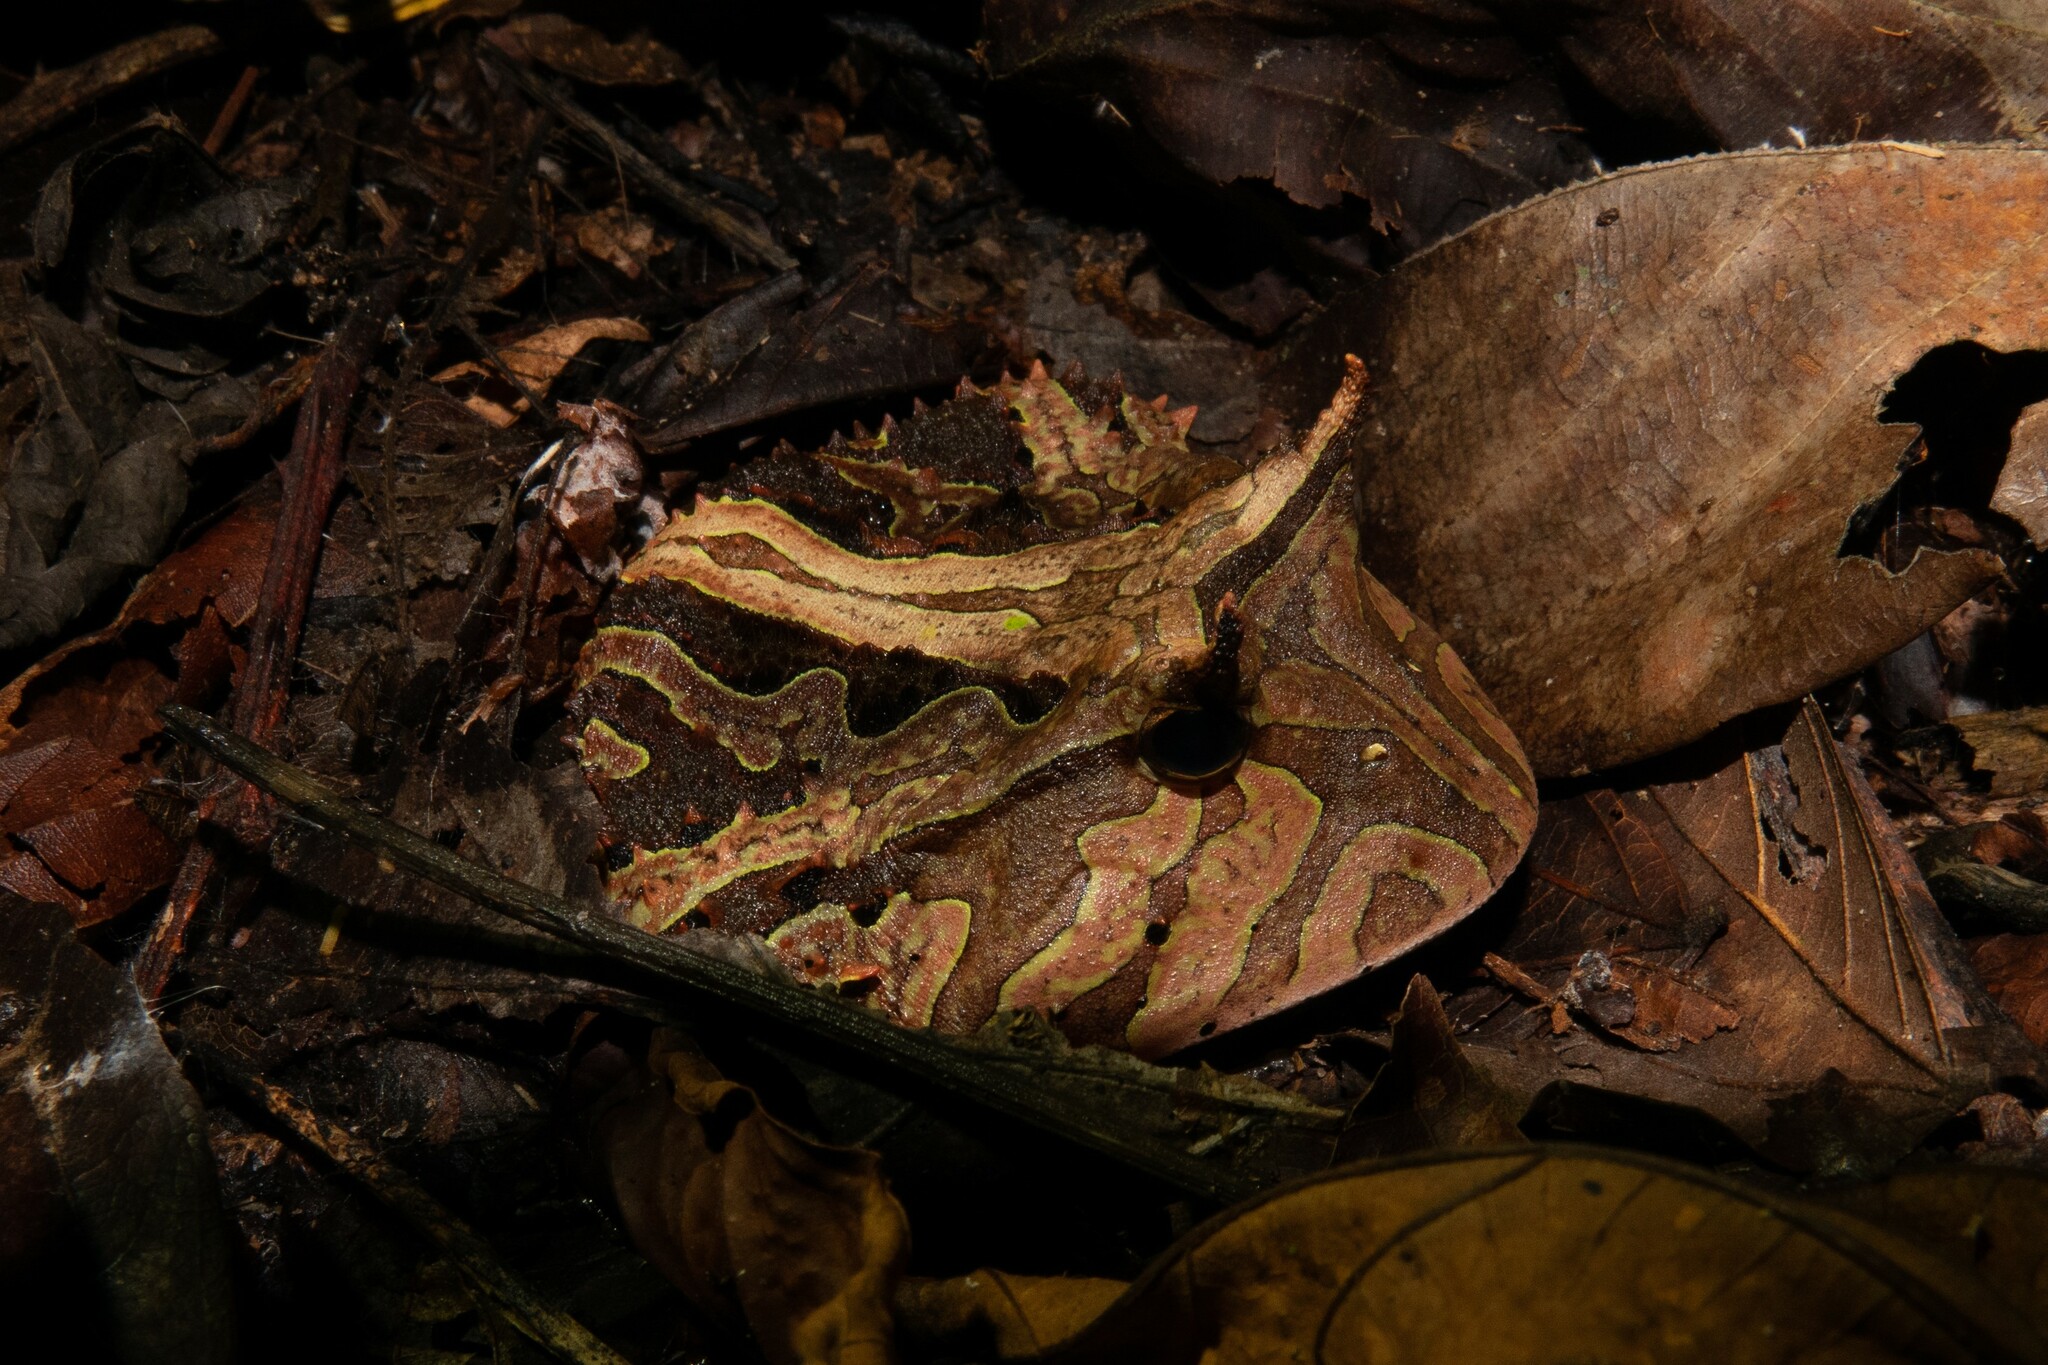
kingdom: Animalia
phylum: Chordata
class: Amphibia
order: Anura
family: Ceratophryidae
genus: Ceratophrys
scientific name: Ceratophrys cornuta
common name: Amazonian horned frog
